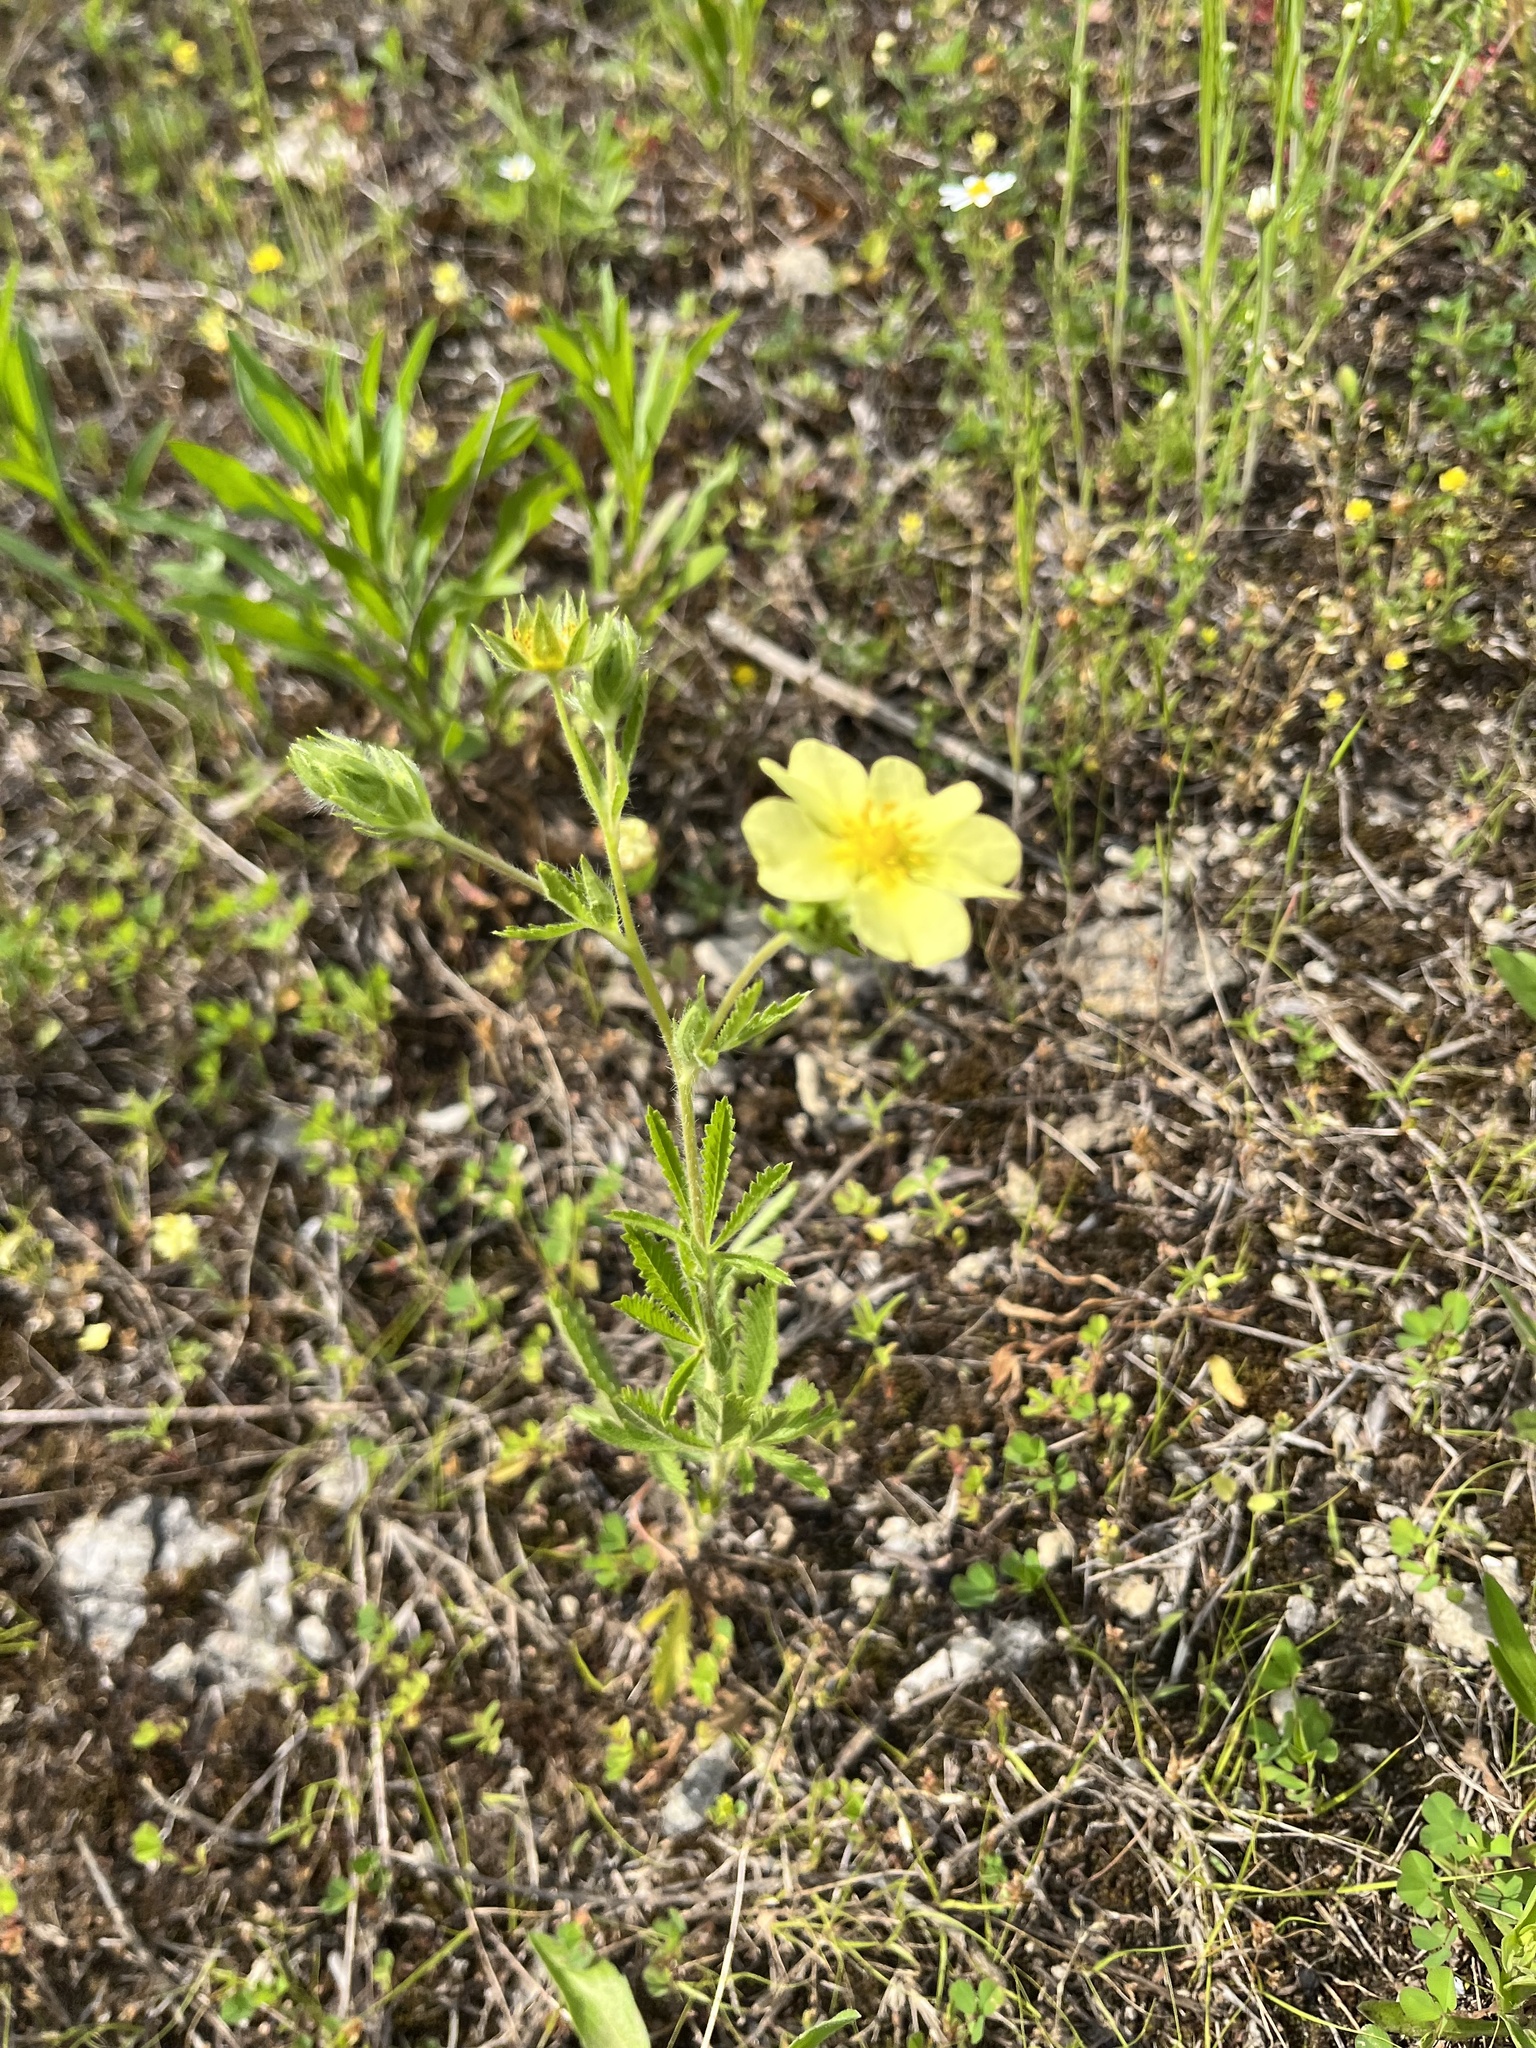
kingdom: Plantae
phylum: Tracheophyta
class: Magnoliopsida
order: Rosales
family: Rosaceae
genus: Potentilla
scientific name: Potentilla recta
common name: Sulphur cinquefoil
